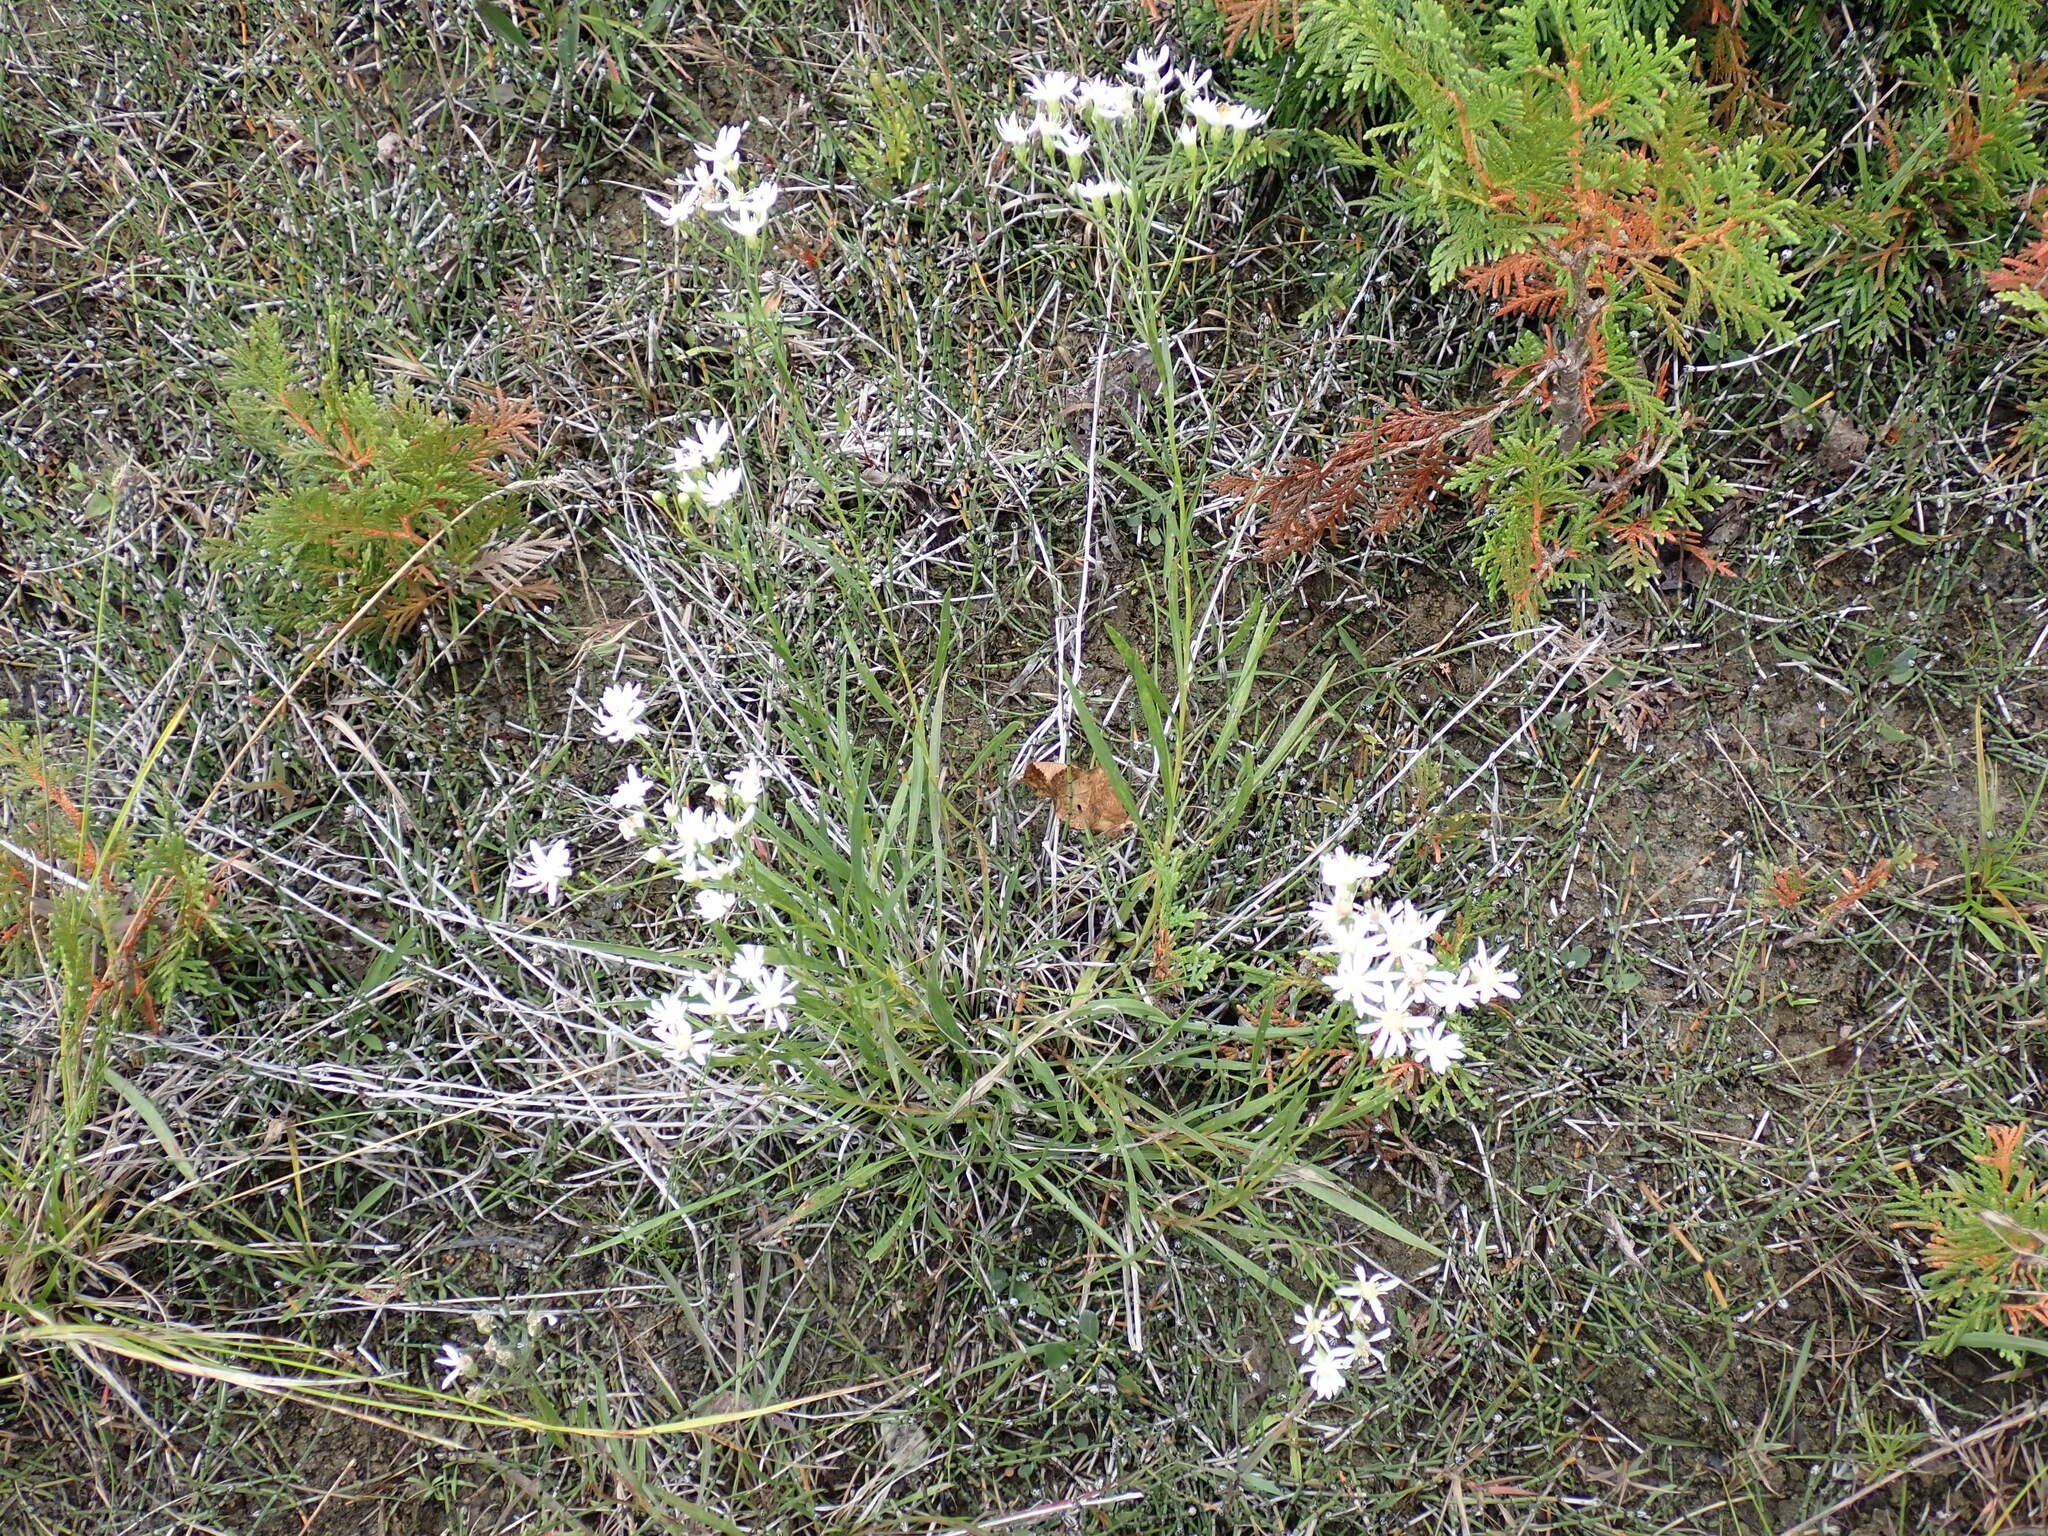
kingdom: Plantae
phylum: Tracheophyta
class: Magnoliopsida
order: Asterales
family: Asteraceae
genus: Solidago
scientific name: Solidago ptarmicoides
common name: White flat-top goldenrod
